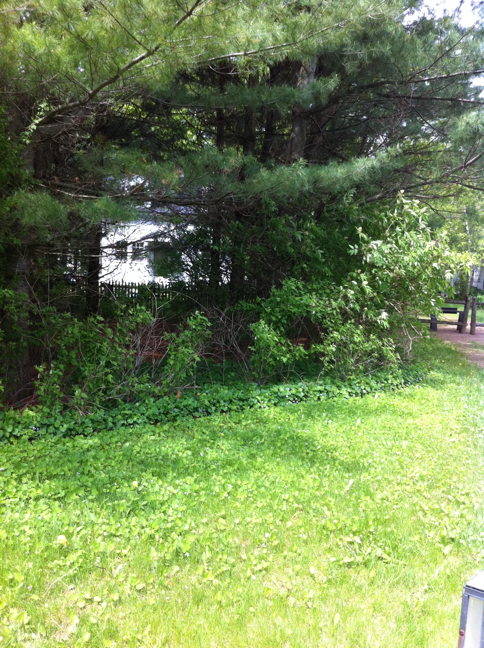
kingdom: Plantae
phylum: Tracheophyta
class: Pinopsida
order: Pinales
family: Pinaceae
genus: Pinus
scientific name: Pinus strobus
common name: Weymouth pine
